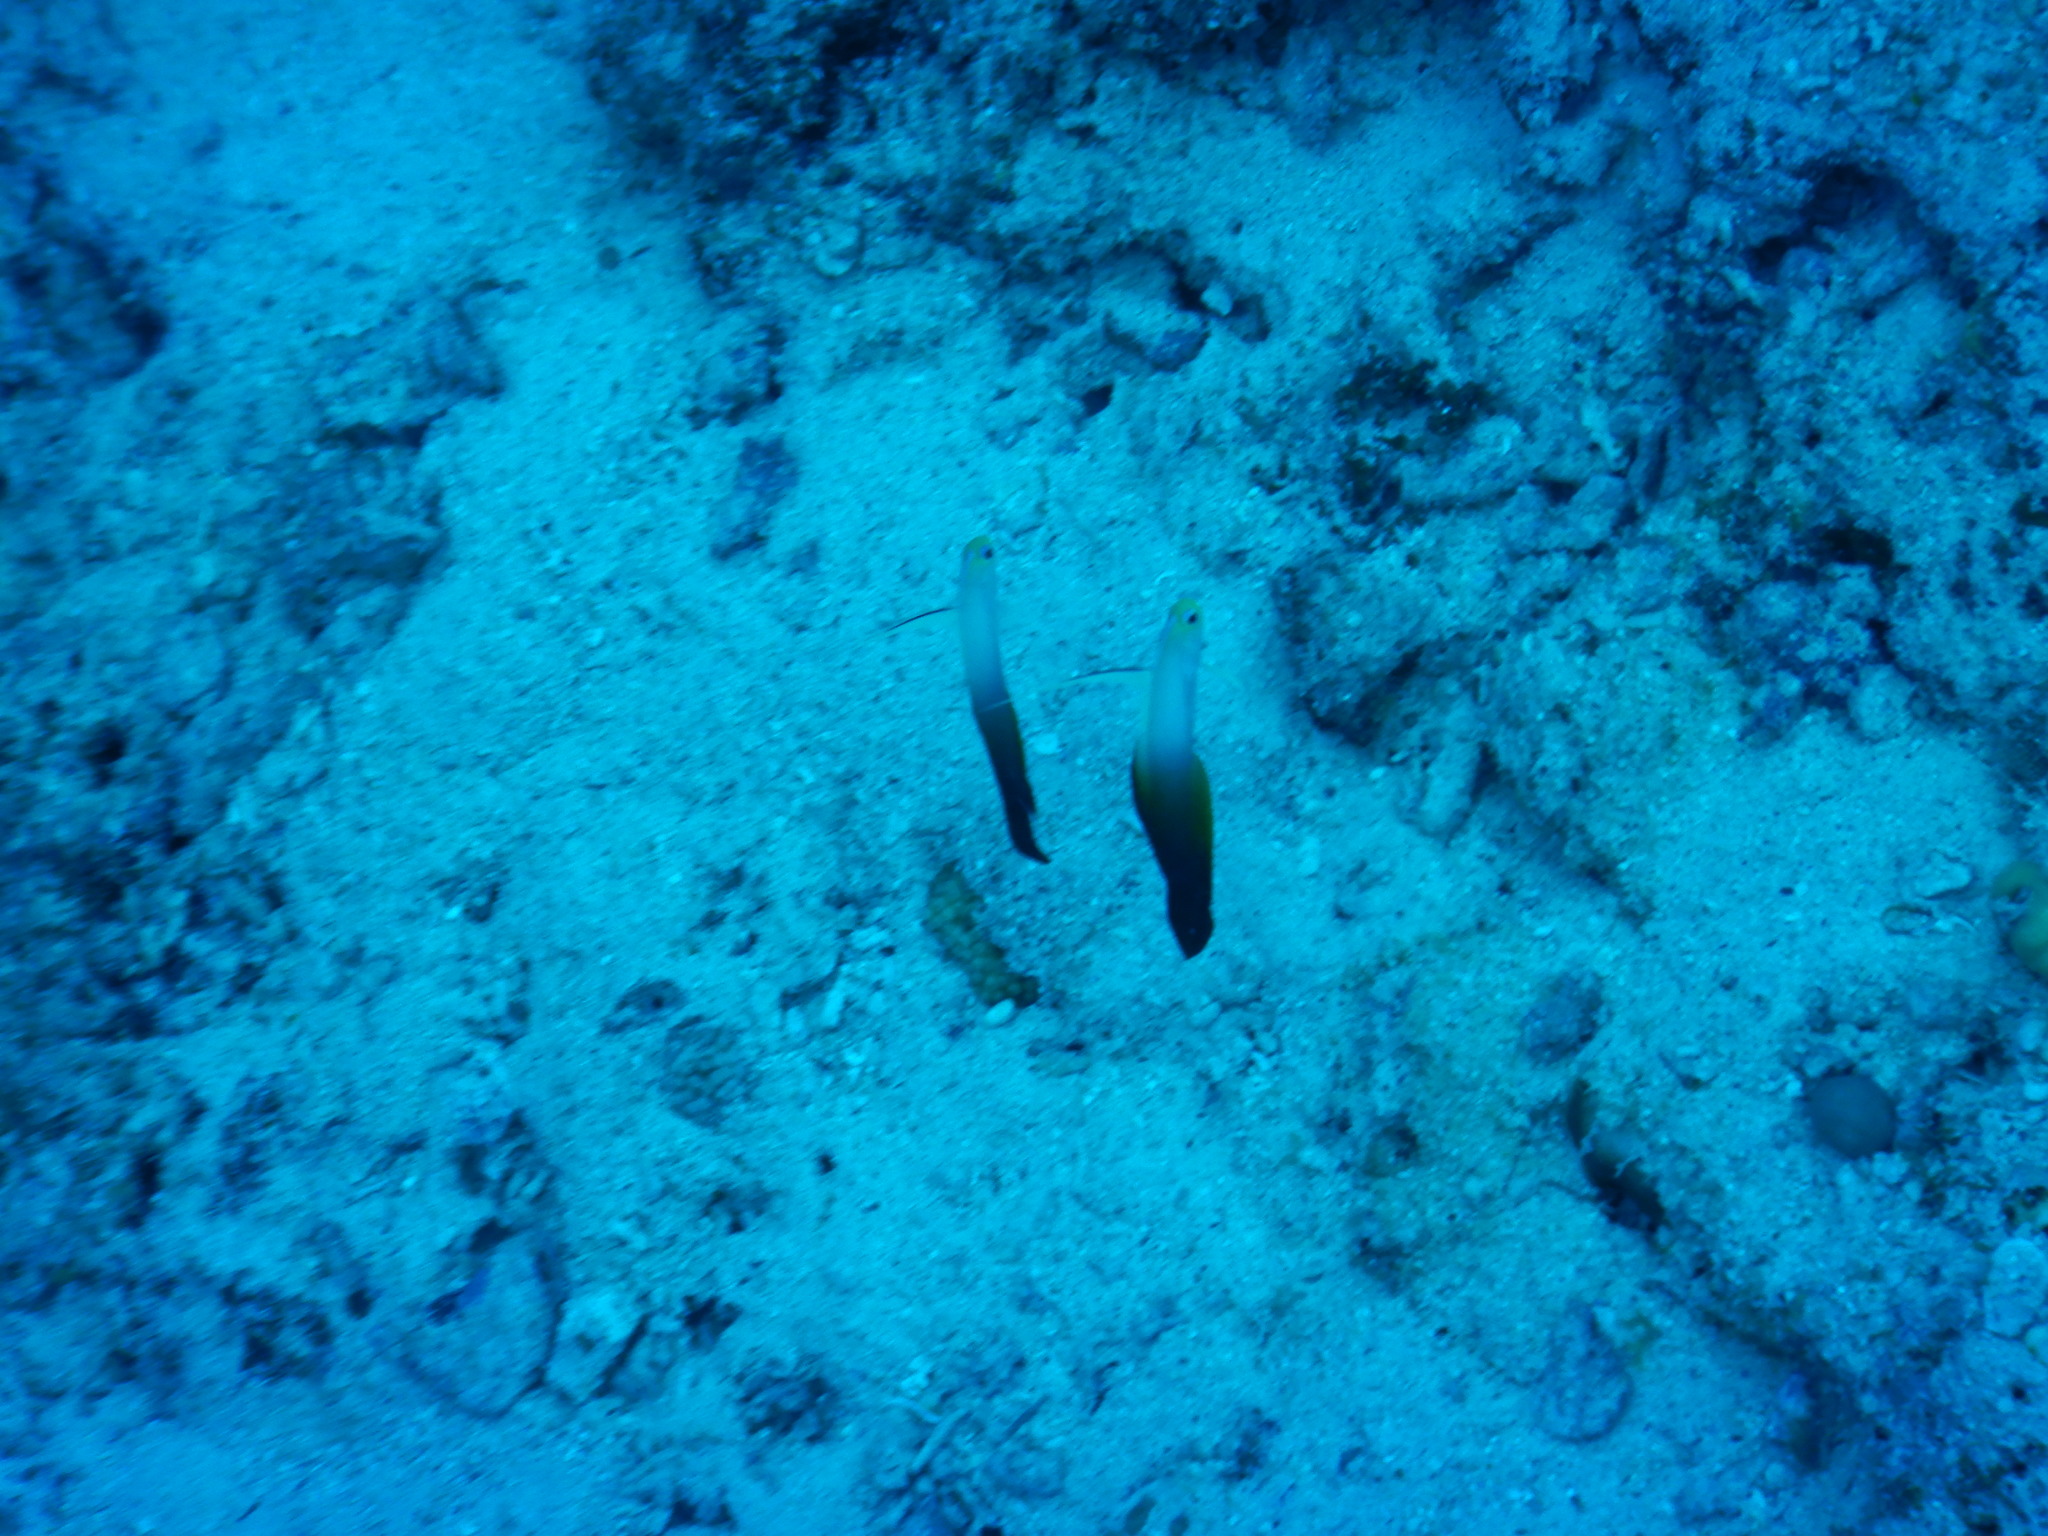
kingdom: Animalia
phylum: Chordata
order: Perciformes
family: Microdesmidae
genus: Nemateleotris
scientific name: Nemateleotris magnifica
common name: Fire goby
